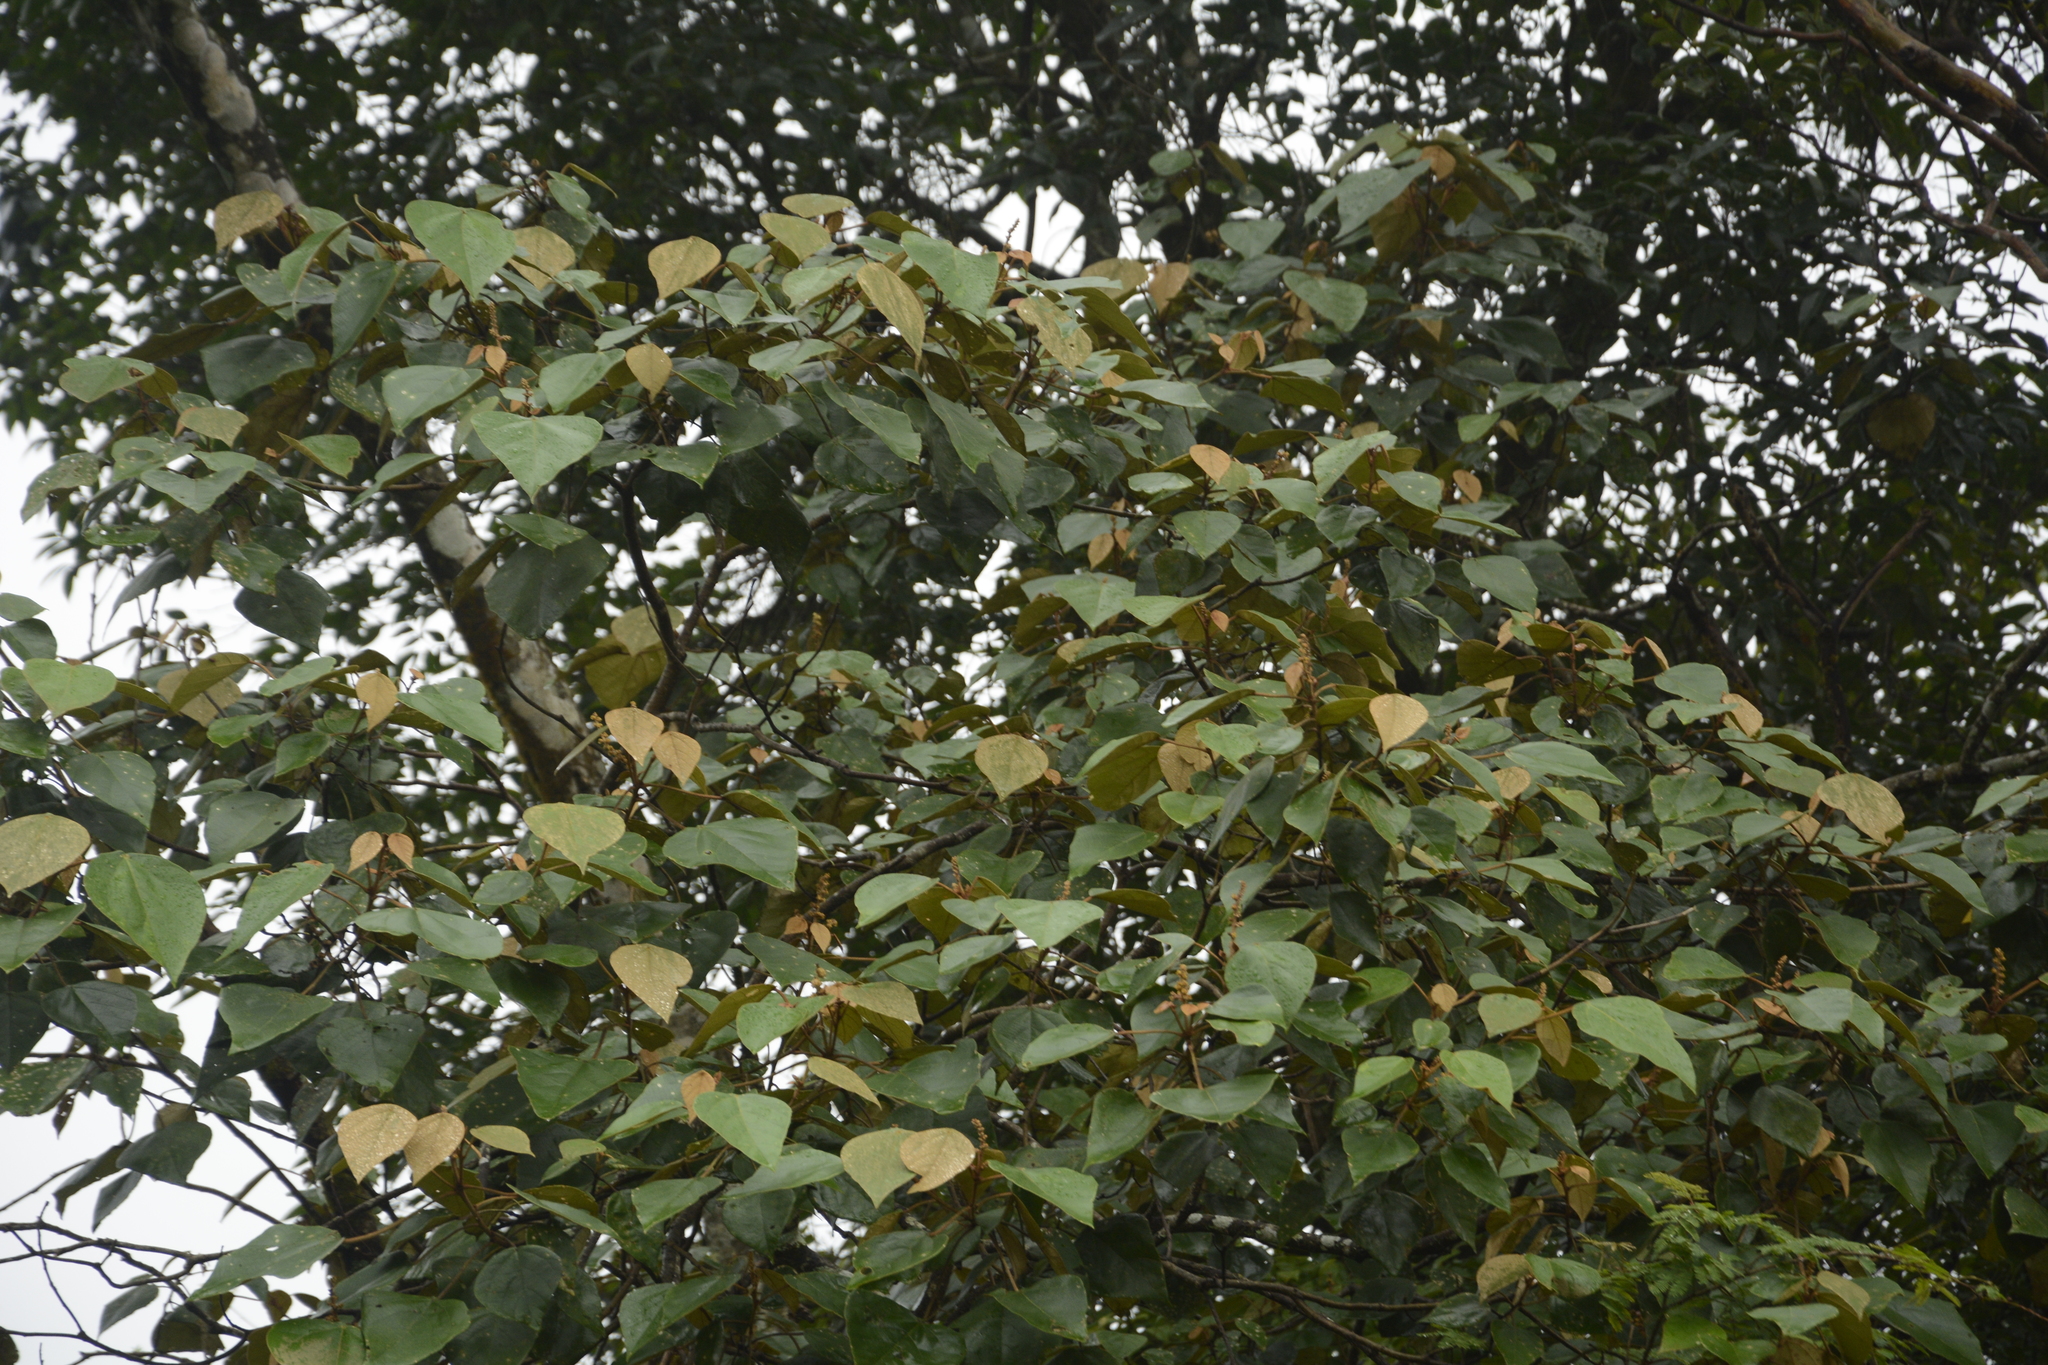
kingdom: Plantae
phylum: Tracheophyta
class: Magnoliopsida
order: Malpighiales
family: Euphorbiaceae
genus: Mallotus
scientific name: Mallotus tetracoccus
